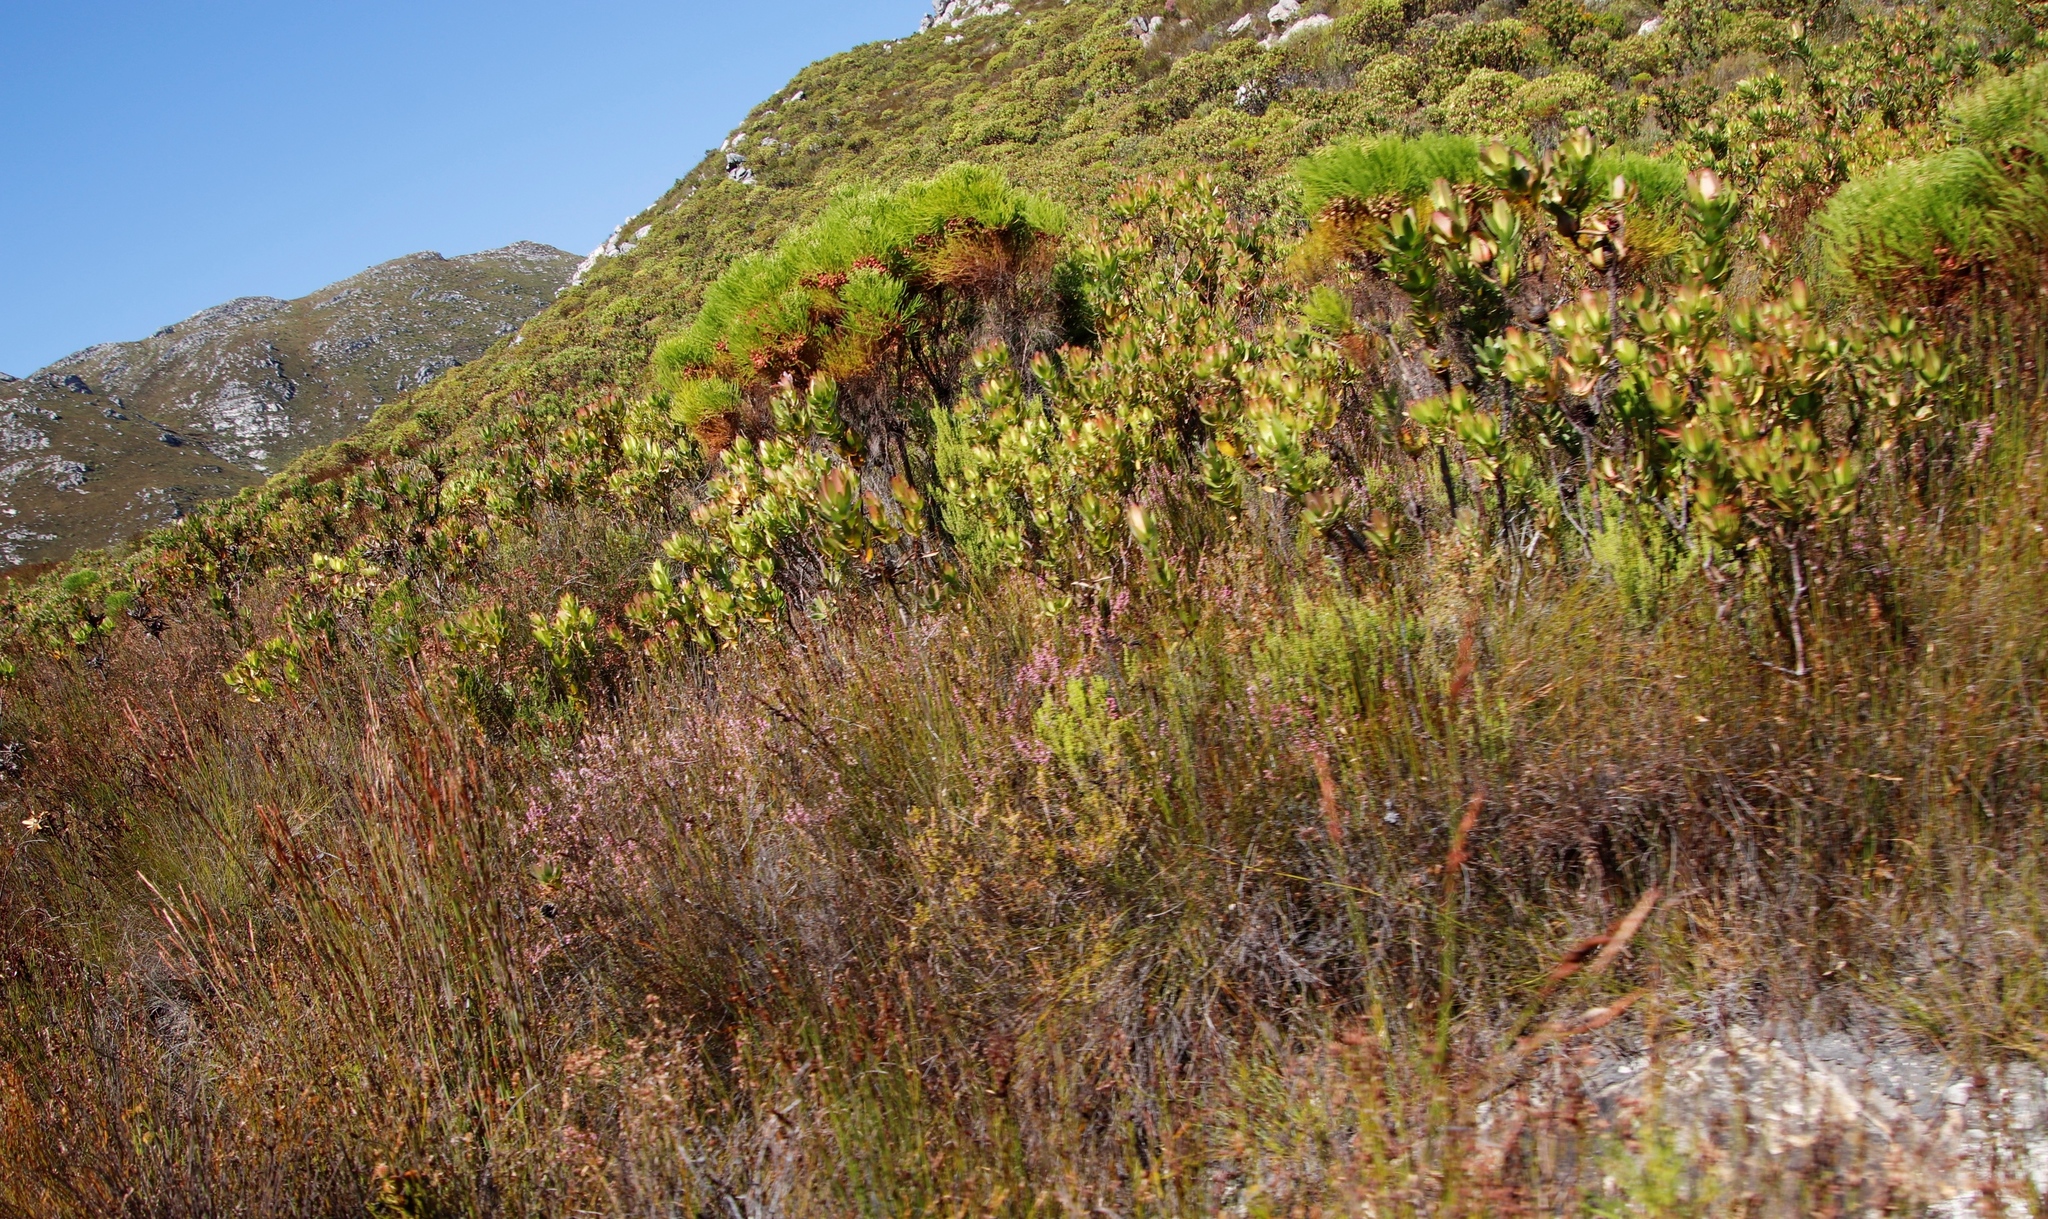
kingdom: Plantae
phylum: Tracheophyta
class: Magnoliopsida
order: Bruniales
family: Bruniaceae
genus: Berzelia
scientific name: Berzelia lanuginosa
